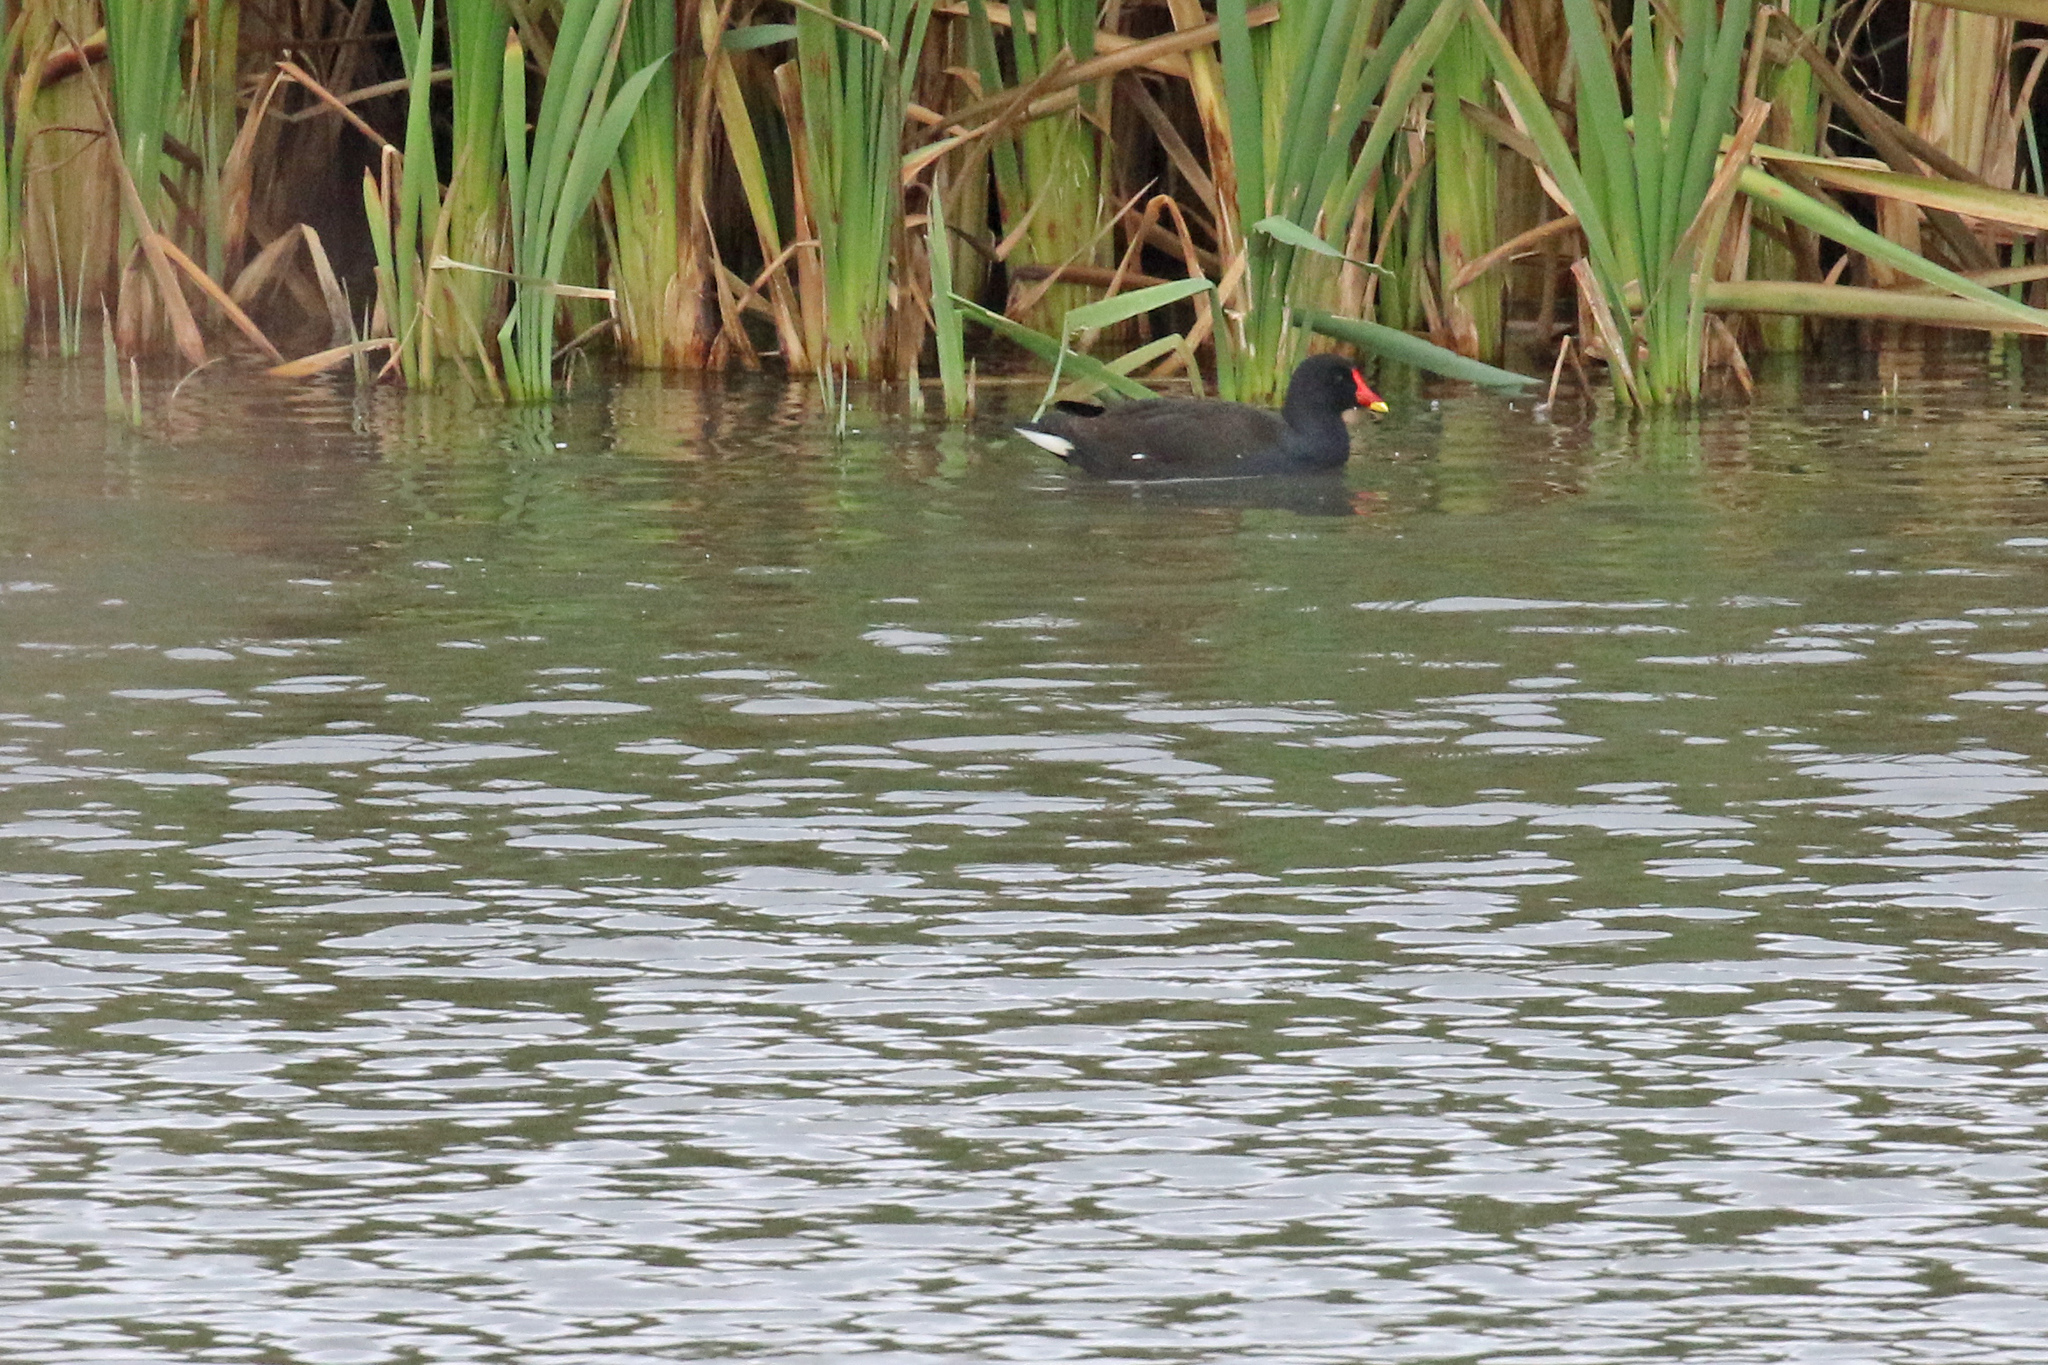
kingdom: Animalia
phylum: Chordata
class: Aves
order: Gruiformes
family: Rallidae
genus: Gallinula
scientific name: Gallinula chloropus
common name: Common moorhen
